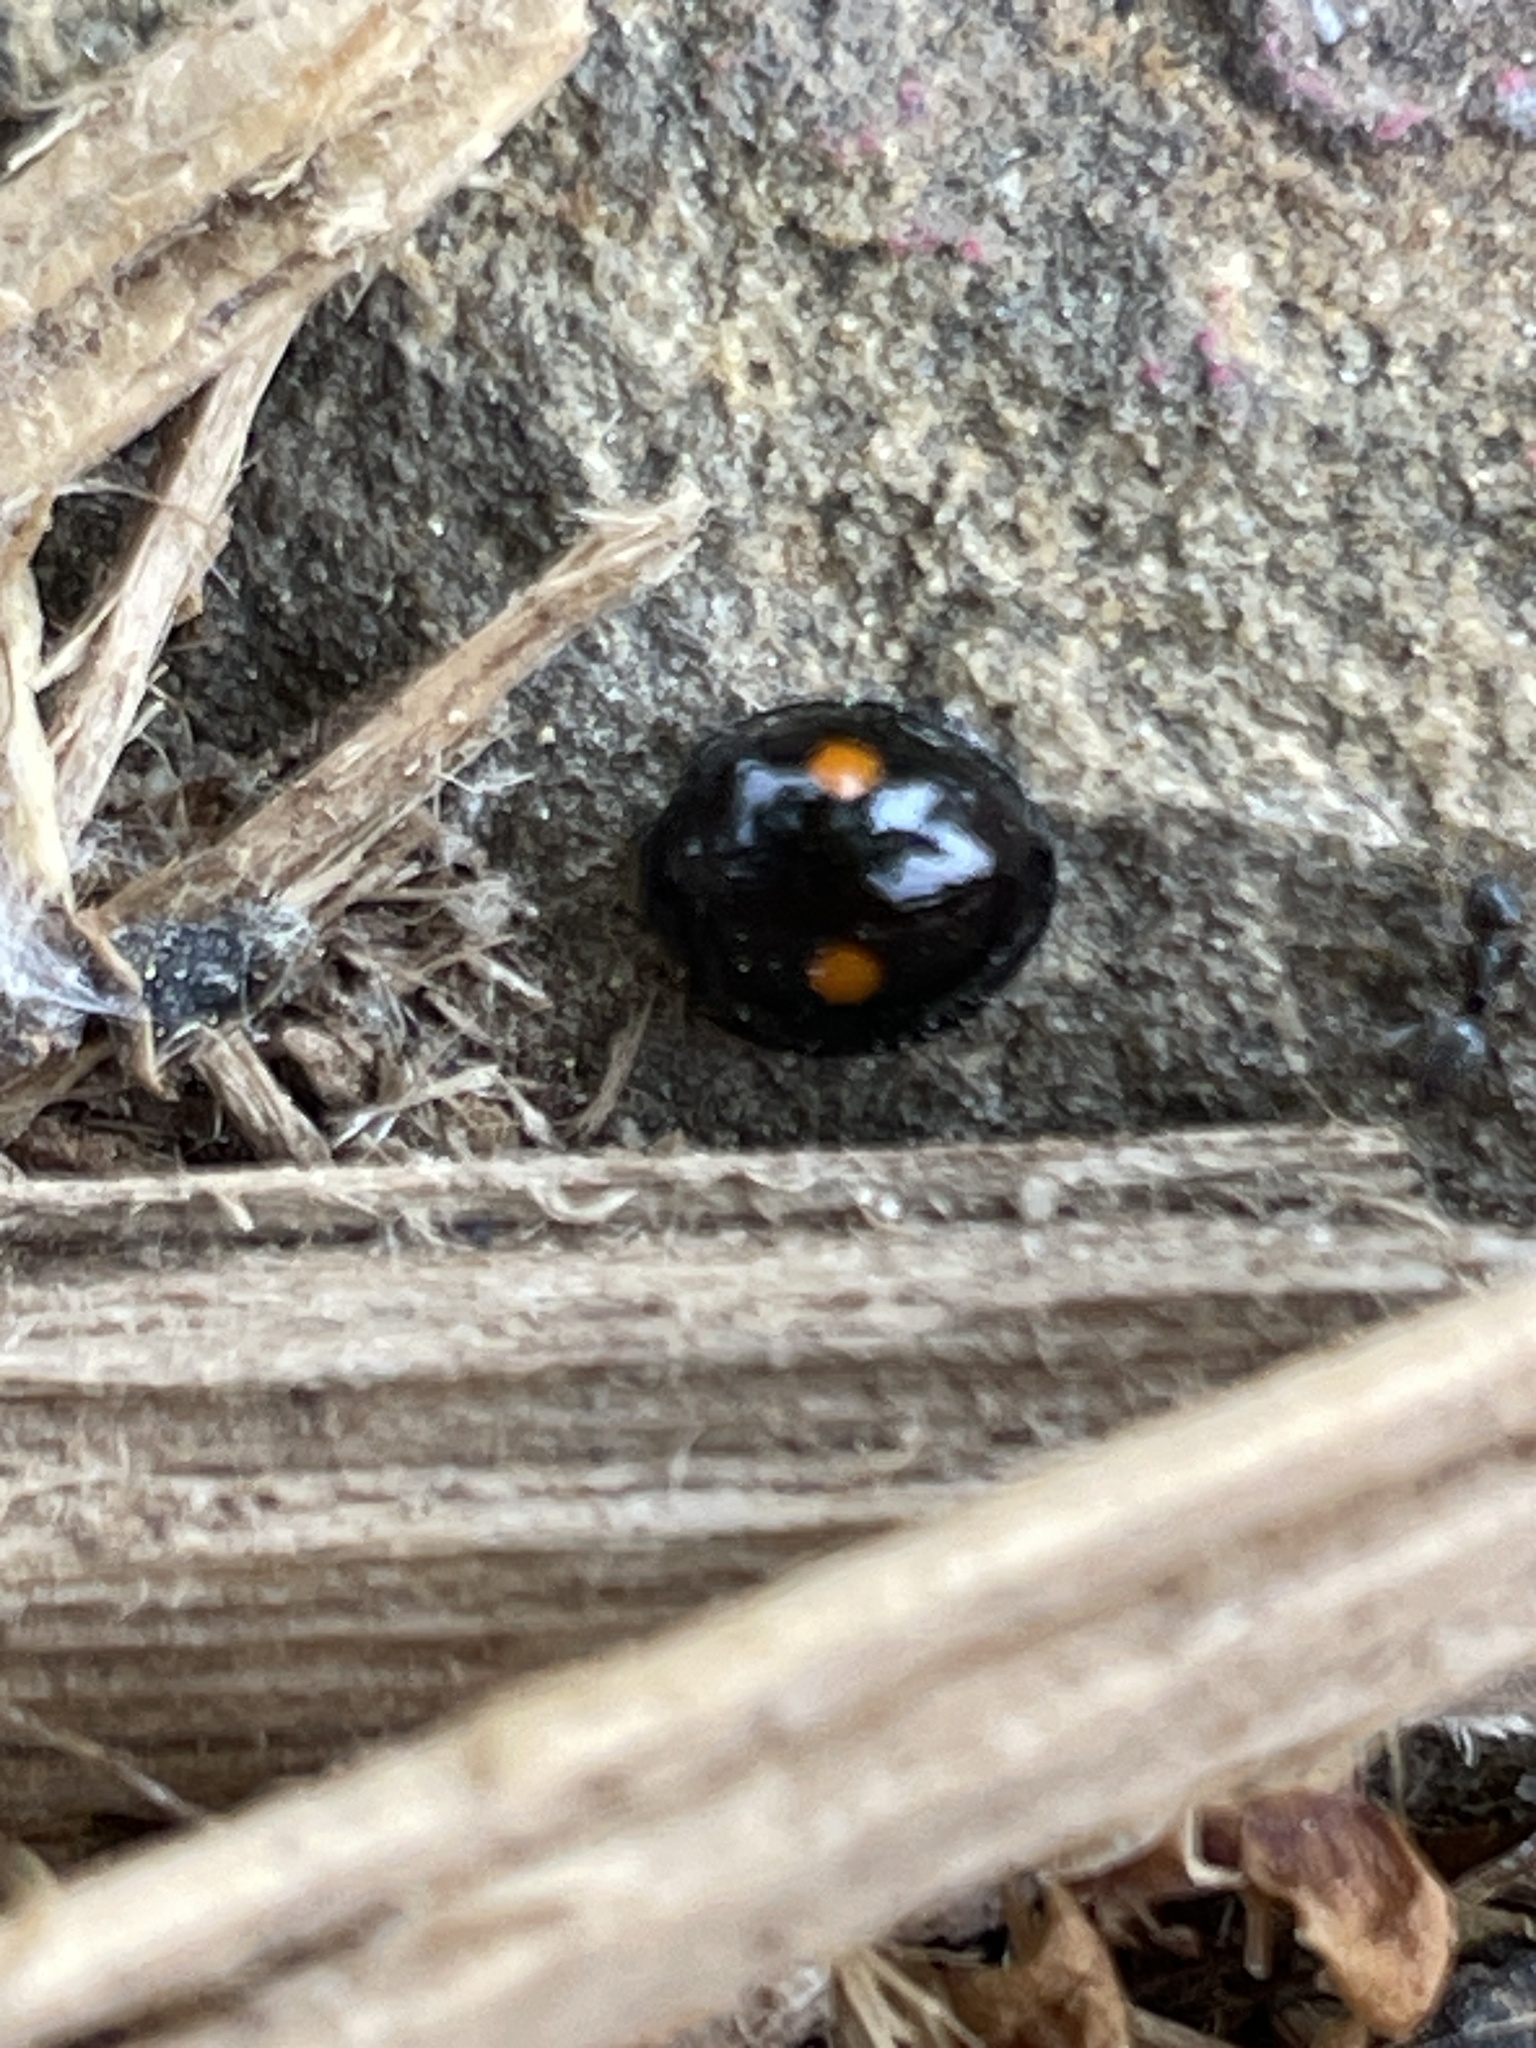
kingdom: Animalia
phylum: Arthropoda
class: Insecta
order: Coleoptera
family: Coccinellidae
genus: Chilocorus
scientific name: Chilocorus stigma
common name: Twicestabbed lady beetle
